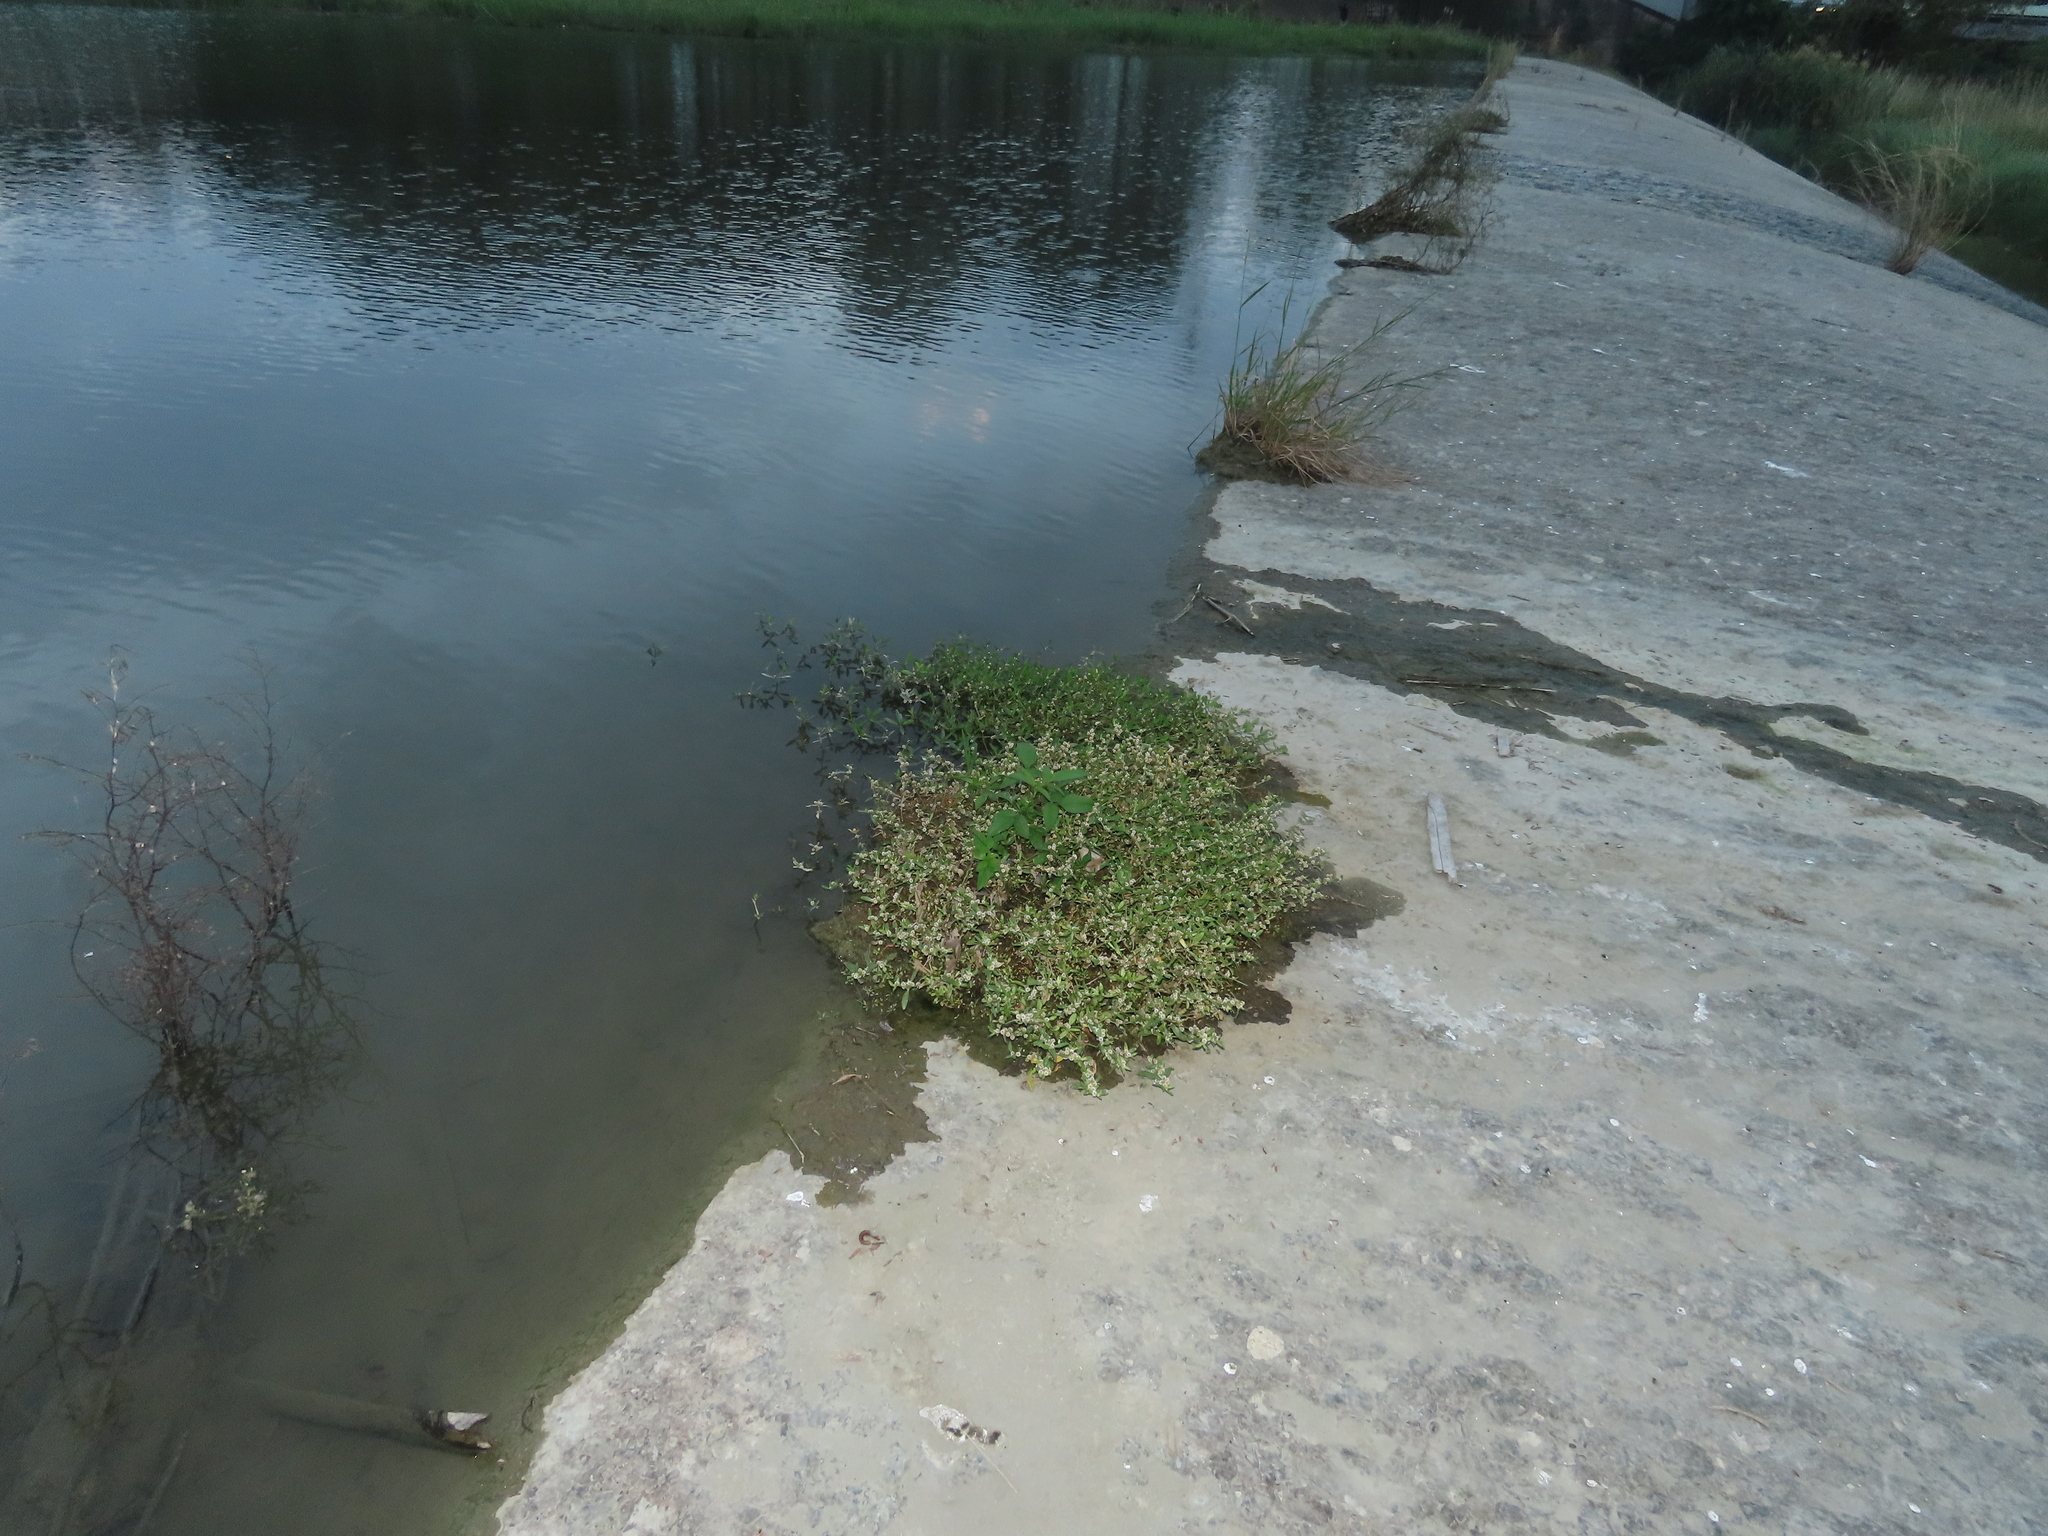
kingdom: Plantae
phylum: Tracheophyta
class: Magnoliopsida
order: Caryophyllales
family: Amaranthaceae
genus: Alternanthera
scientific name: Alternanthera sessilis
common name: Sessile joyweed
